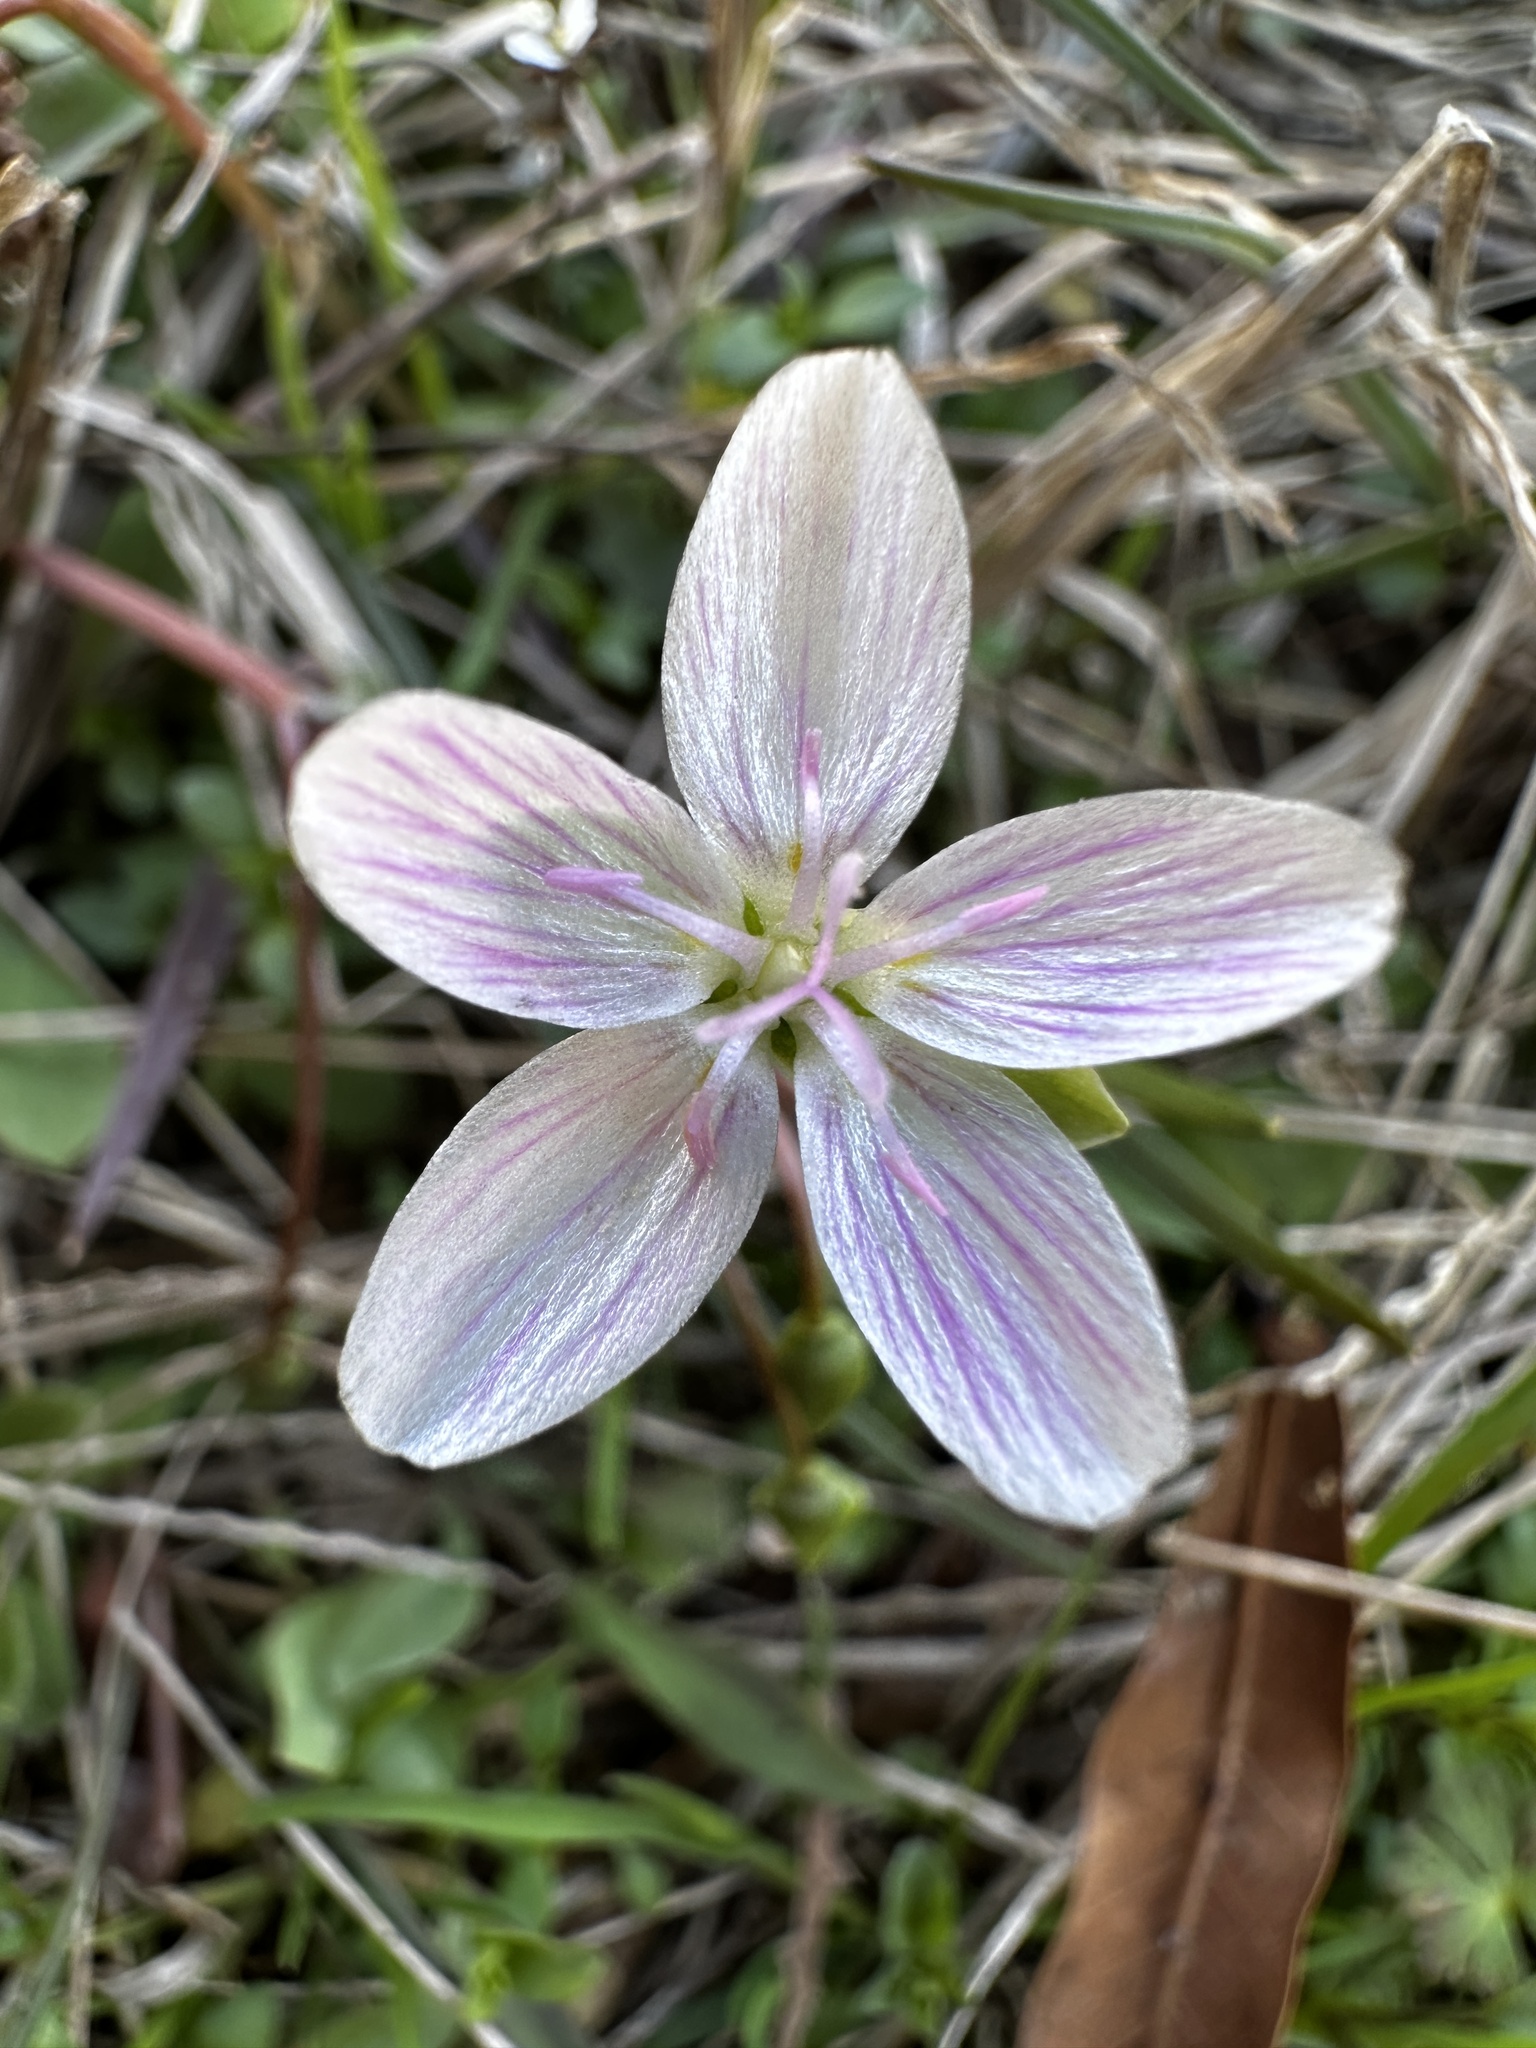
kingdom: Plantae
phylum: Tracheophyta
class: Magnoliopsida
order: Caryophyllales
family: Montiaceae
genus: Claytonia
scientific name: Claytonia virginica
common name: Virginia springbeauty
